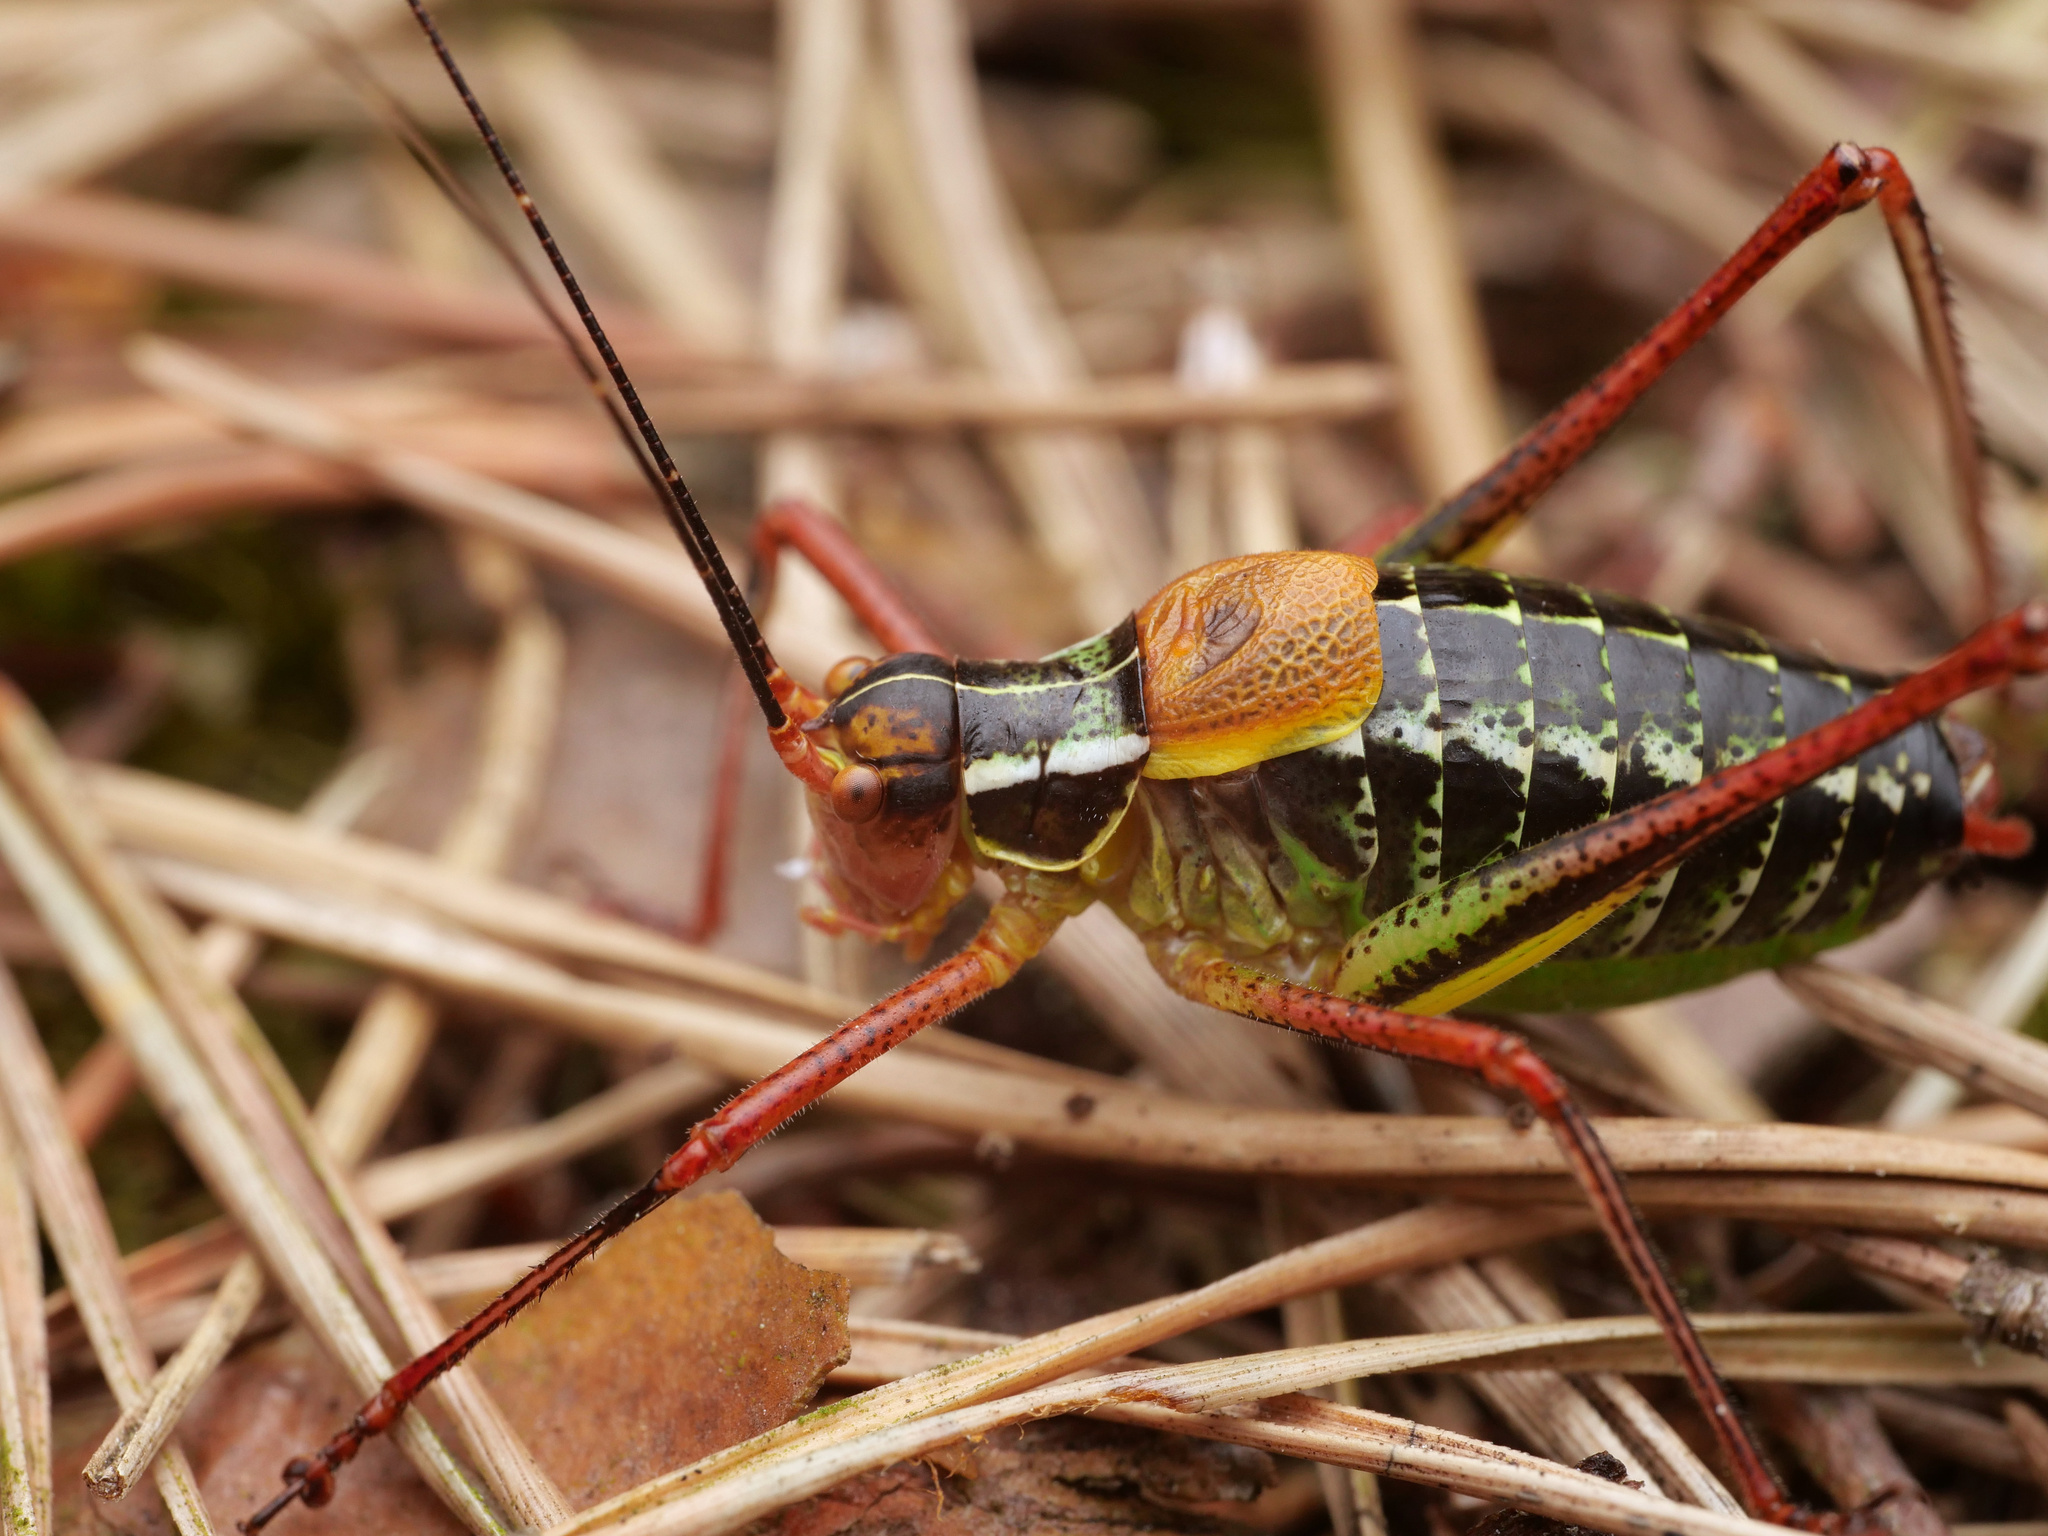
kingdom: Animalia
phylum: Arthropoda
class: Insecta
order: Orthoptera
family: Tettigoniidae
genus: Barbitistes
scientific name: Barbitistes constrictus
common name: Eastern saw-tailed bush cricket
